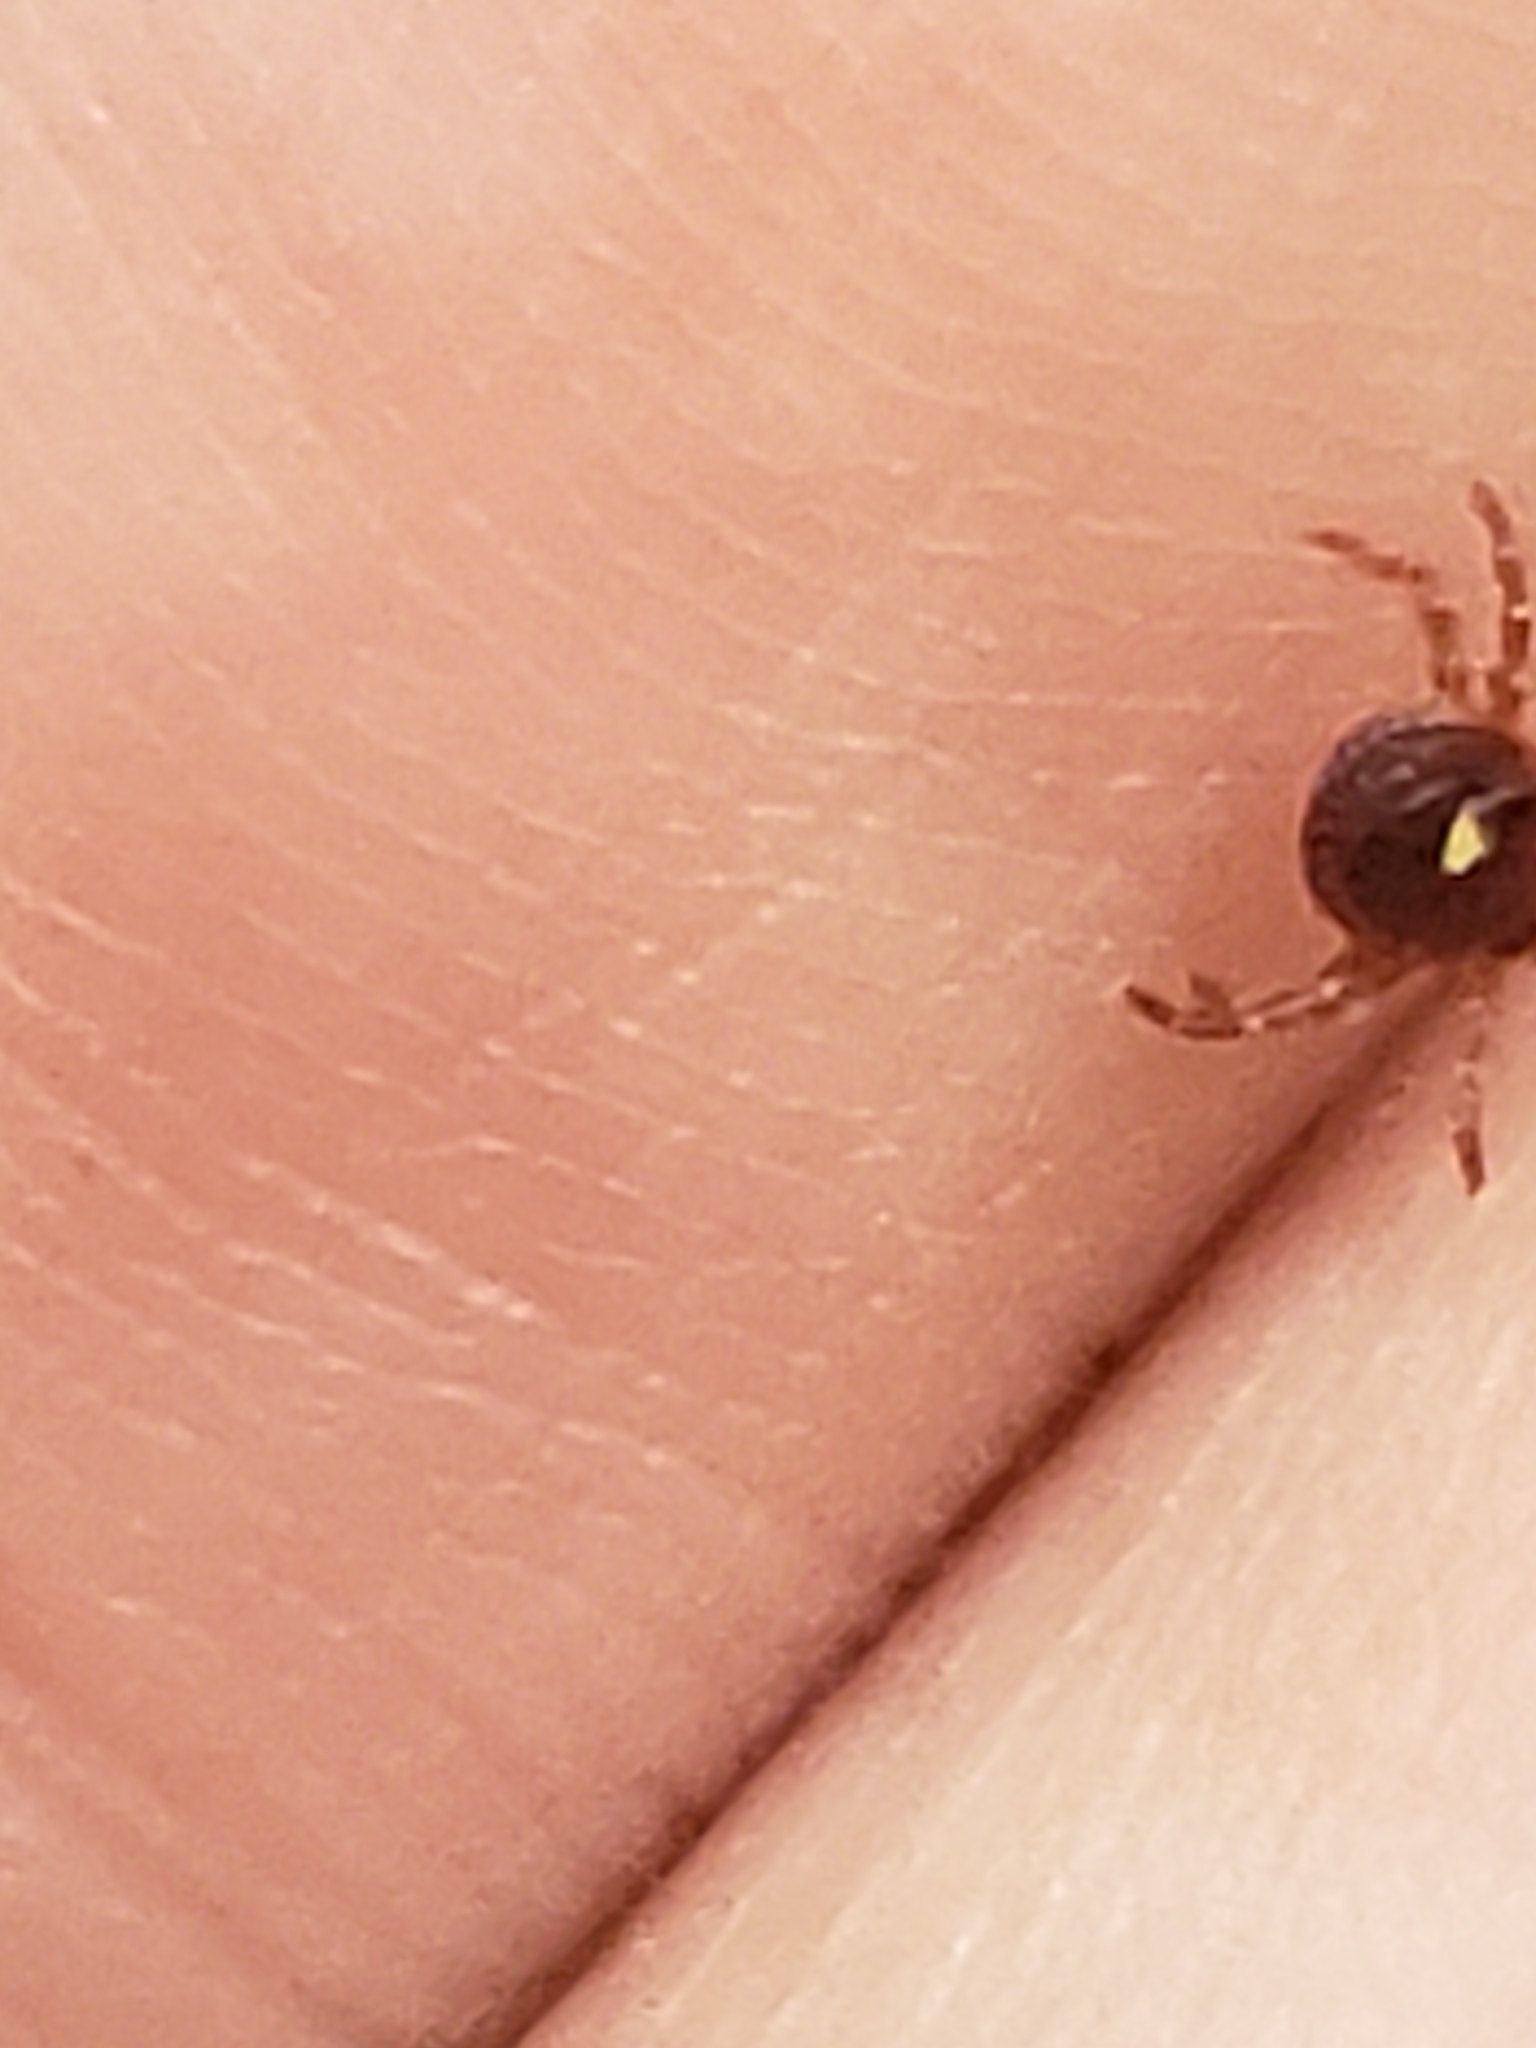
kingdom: Animalia
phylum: Arthropoda
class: Arachnida
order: Ixodida
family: Ixodidae
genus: Amblyomma
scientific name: Amblyomma americanum
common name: Lone star tick
